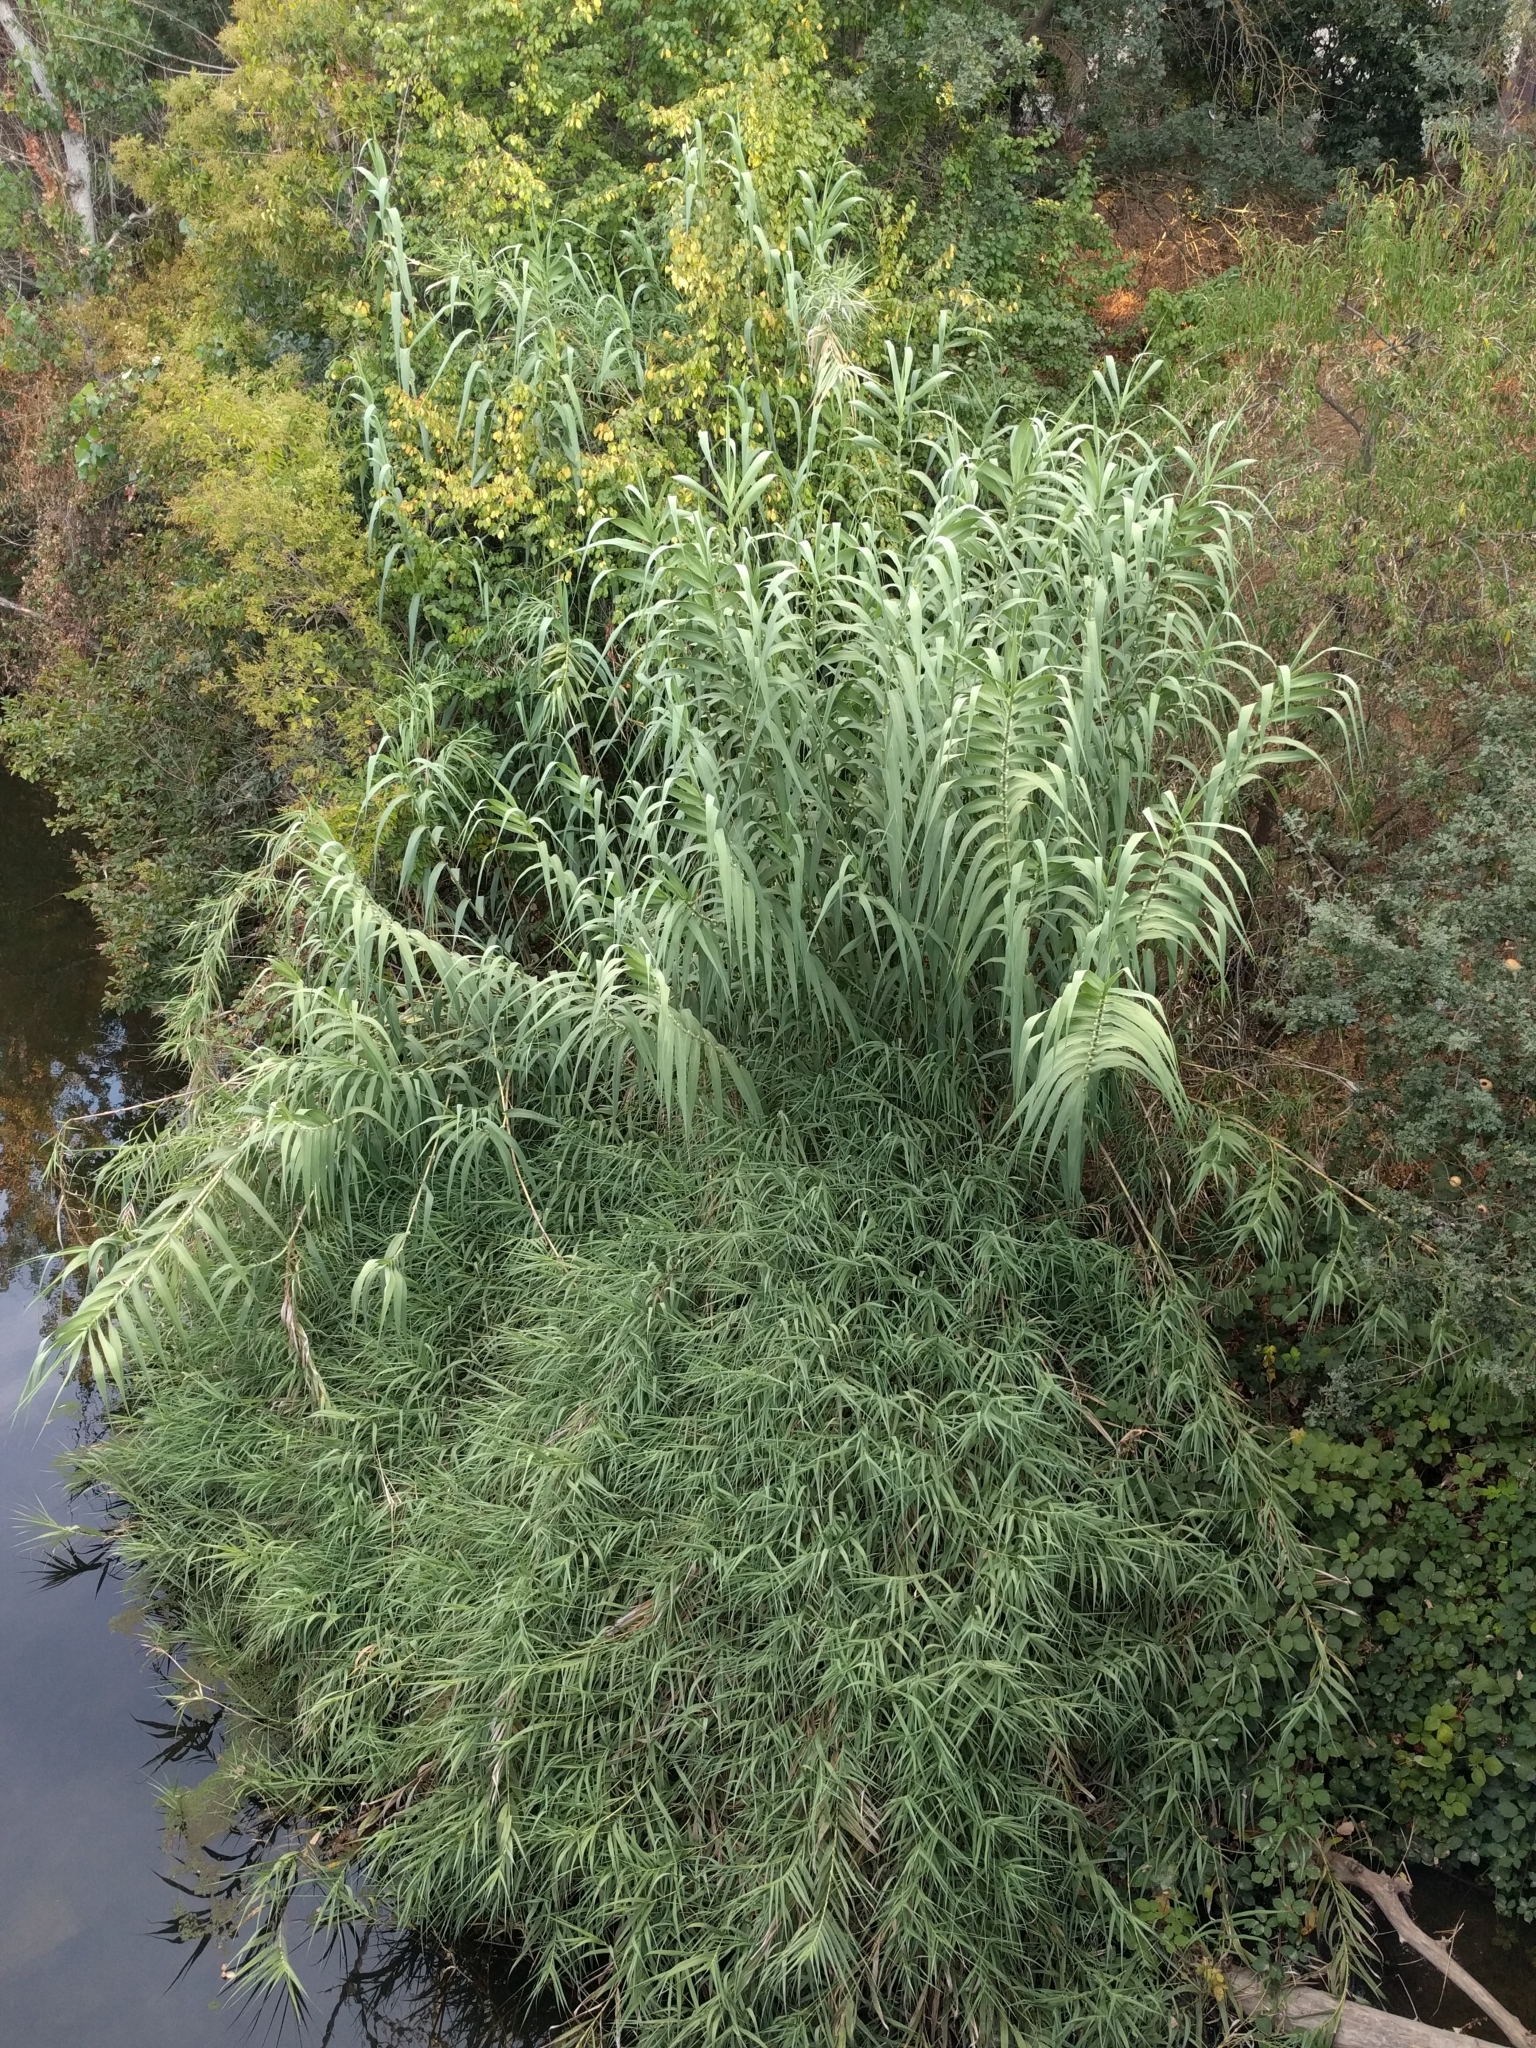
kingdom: Plantae
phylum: Tracheophyta
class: Liliopsida
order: Poales
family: Poaceae
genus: Arundo
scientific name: Arundo donax
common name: Giant reed
